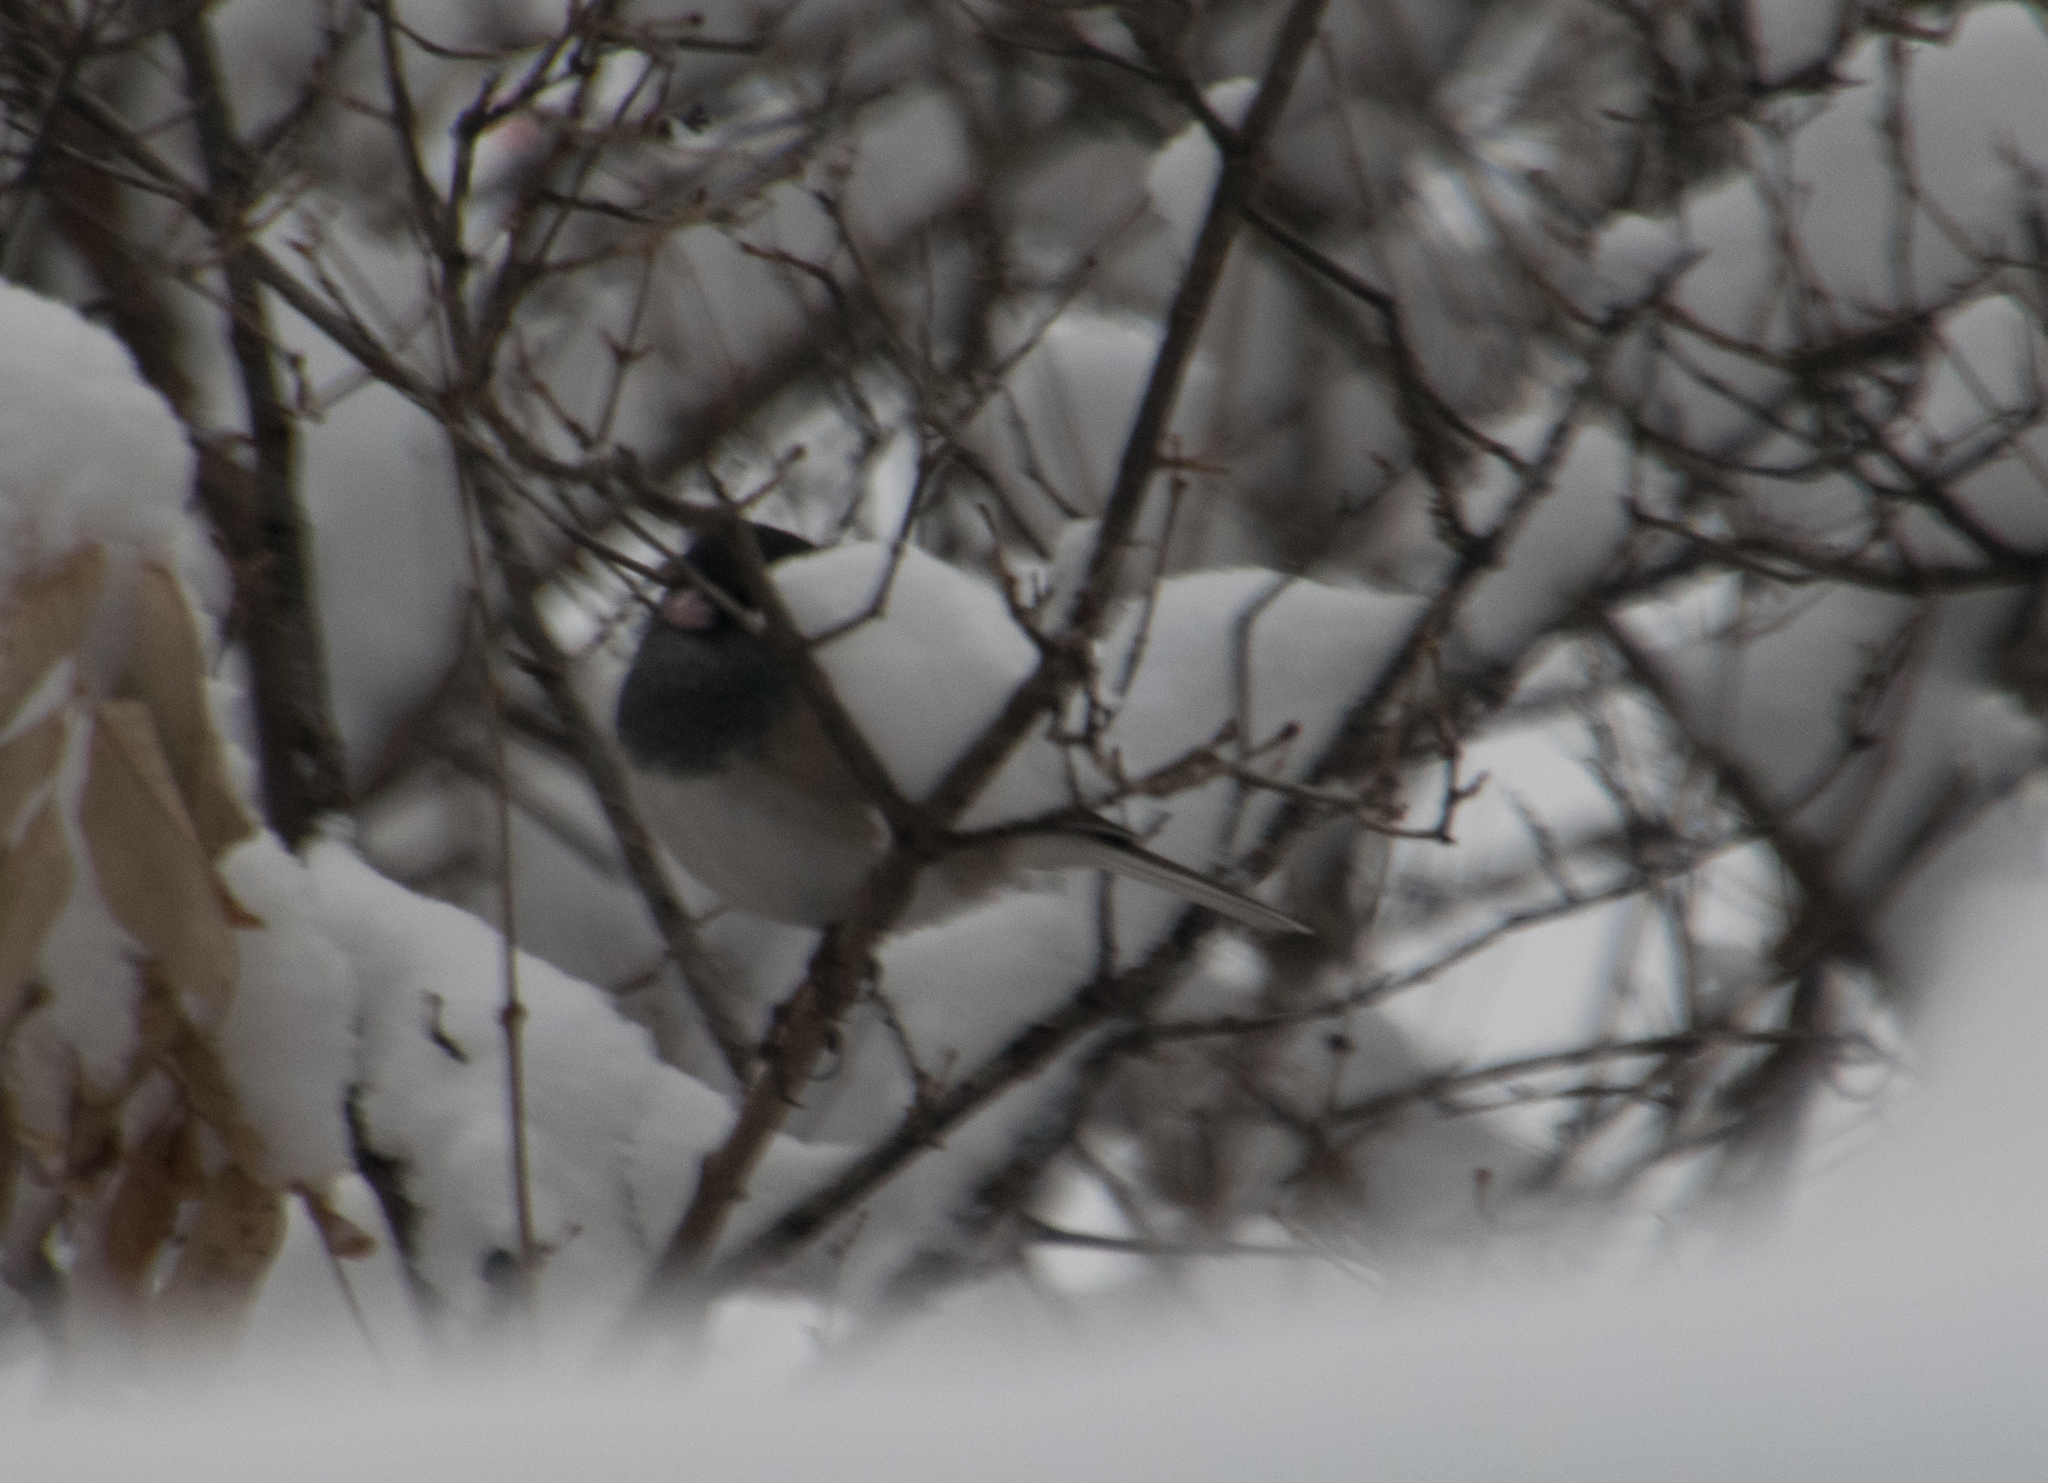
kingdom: Animalia
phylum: Chordata
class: Aves
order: Passeriformes
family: Passerellidae
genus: Junco
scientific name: Junco hyemalis
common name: Dark-eyed junco
